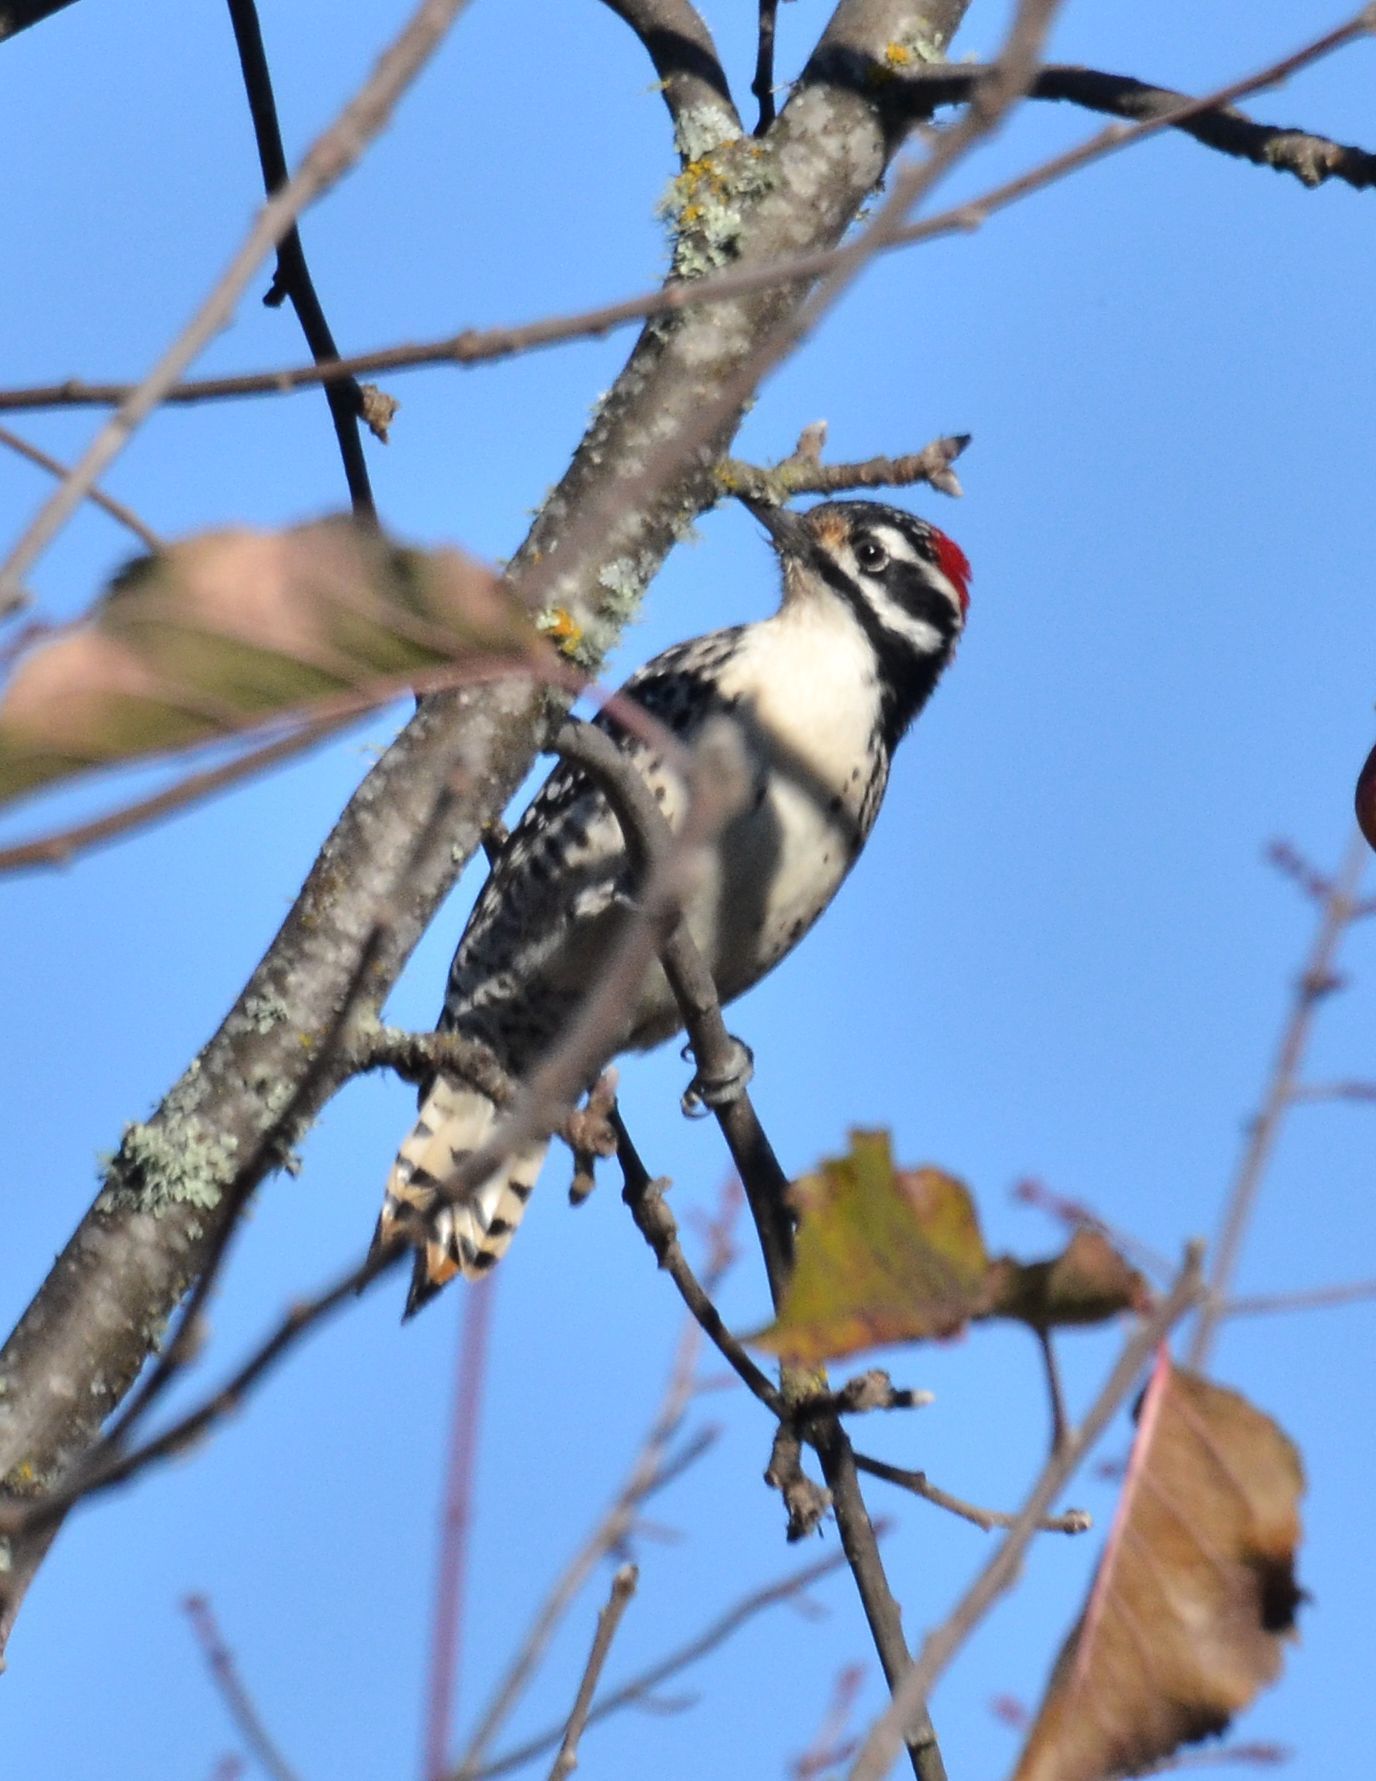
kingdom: Animalia
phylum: Chordata
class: Aves
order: Piciformes
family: Picidae
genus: Dryobates
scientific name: Dryobates nuttallii
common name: Nuttall's woodpecker
